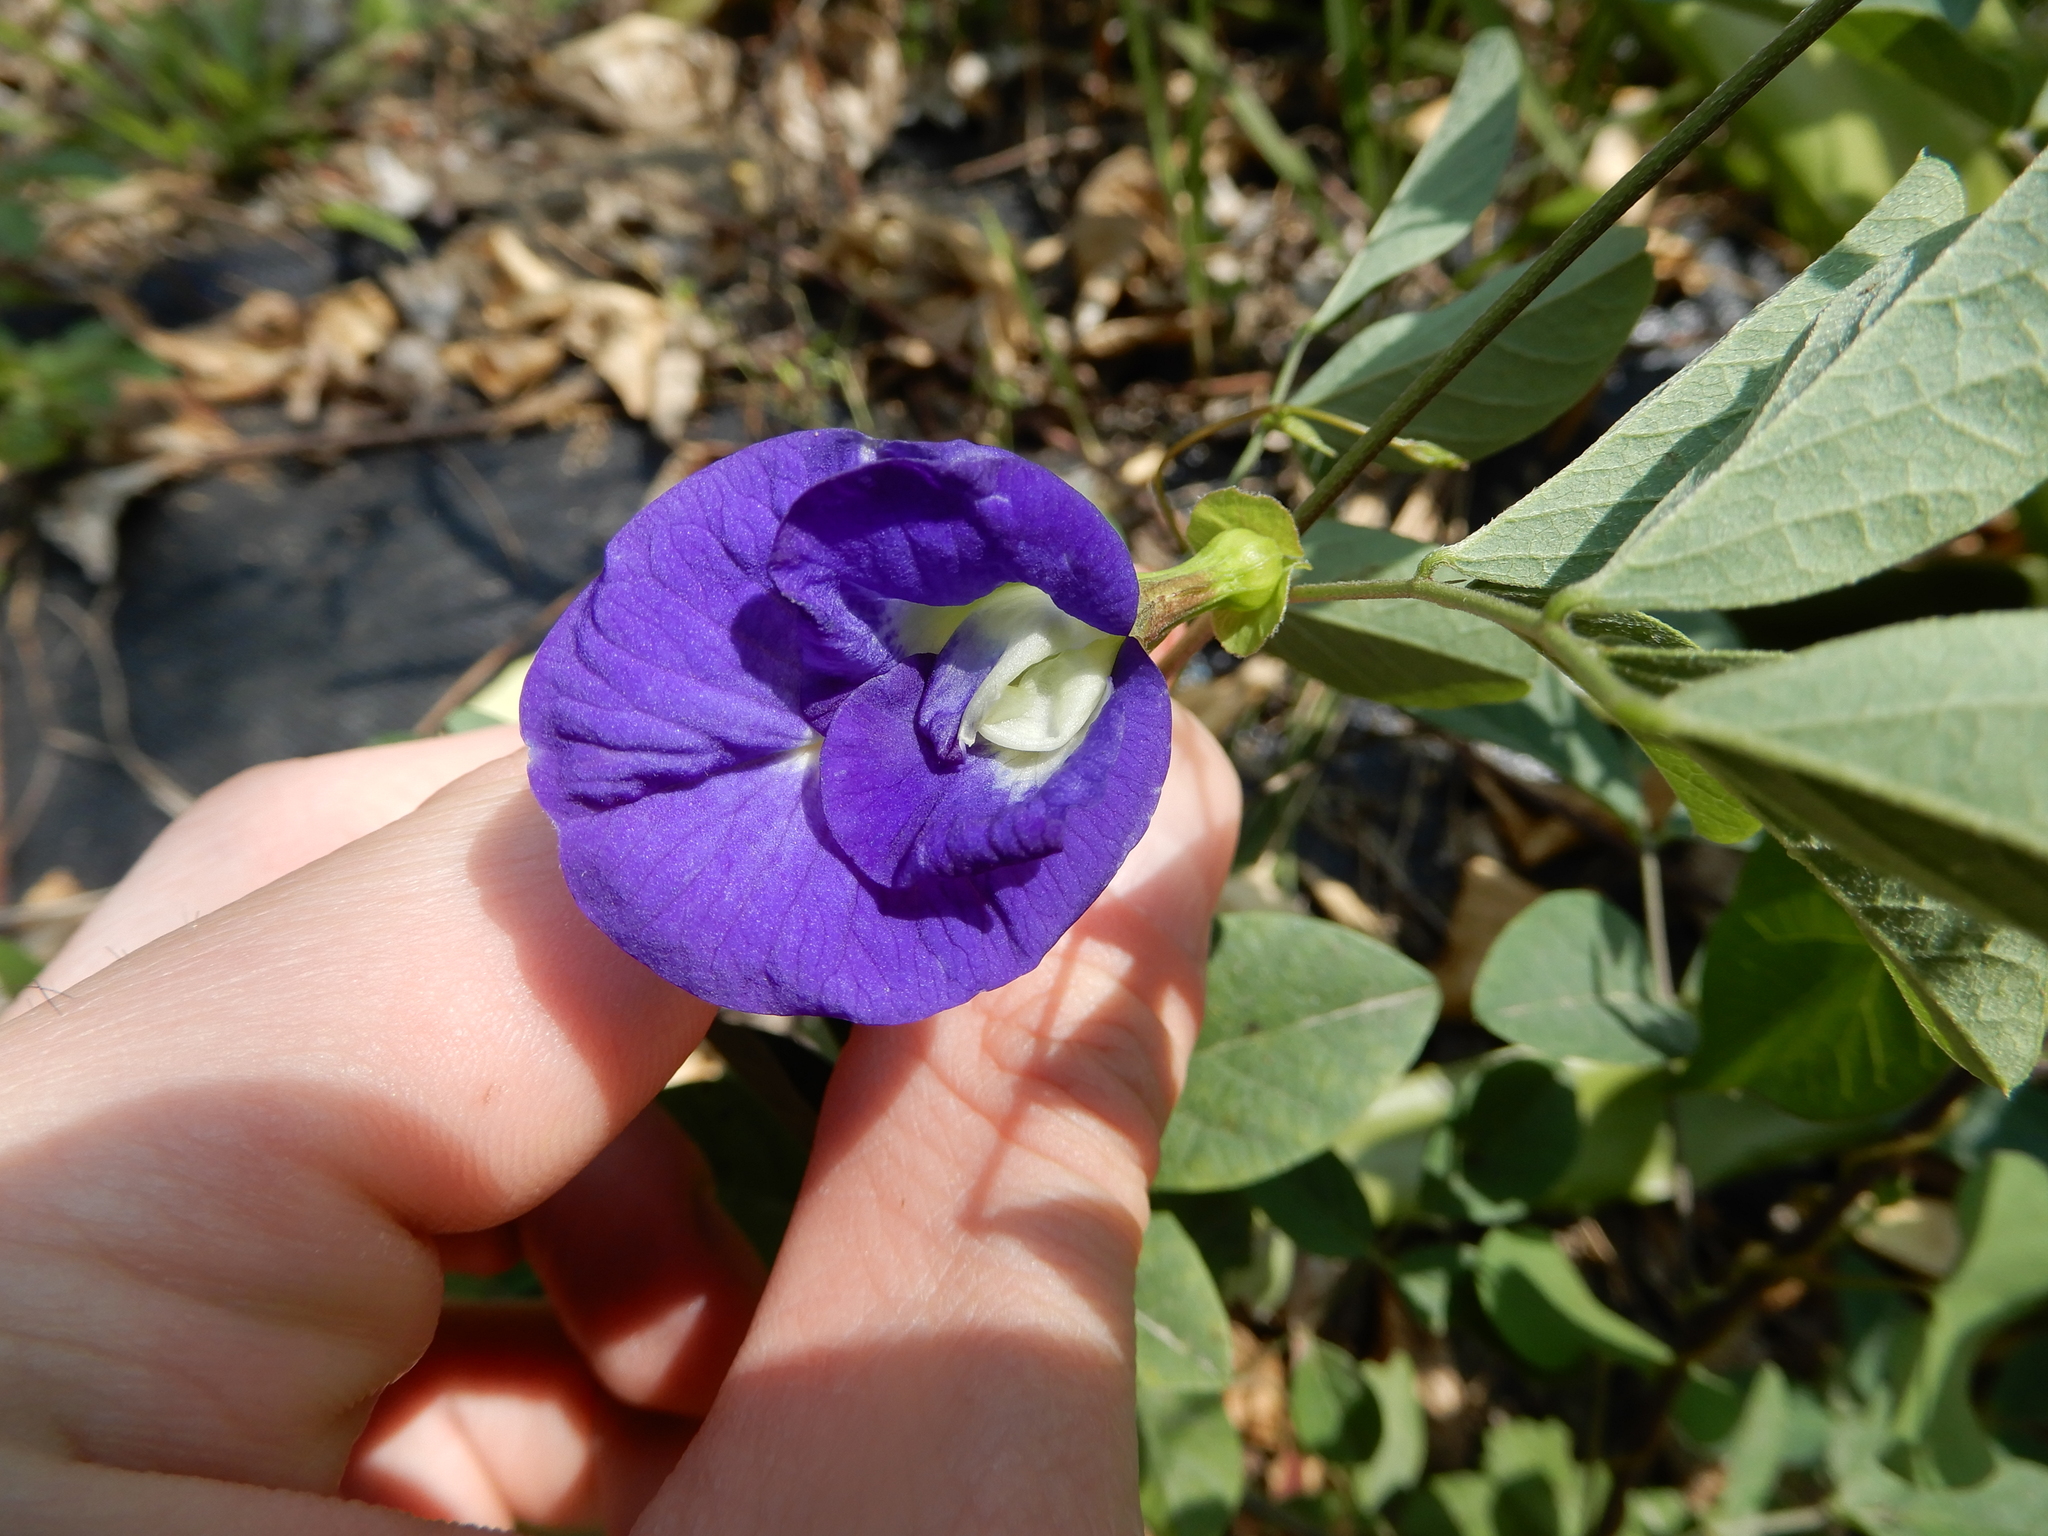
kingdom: Plantae
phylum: Tracheophyta
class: Magnoliopsida
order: Fabales
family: Fabaceae
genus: Clitoria
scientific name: Clitoria ternatea
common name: Asian pigeonwings
